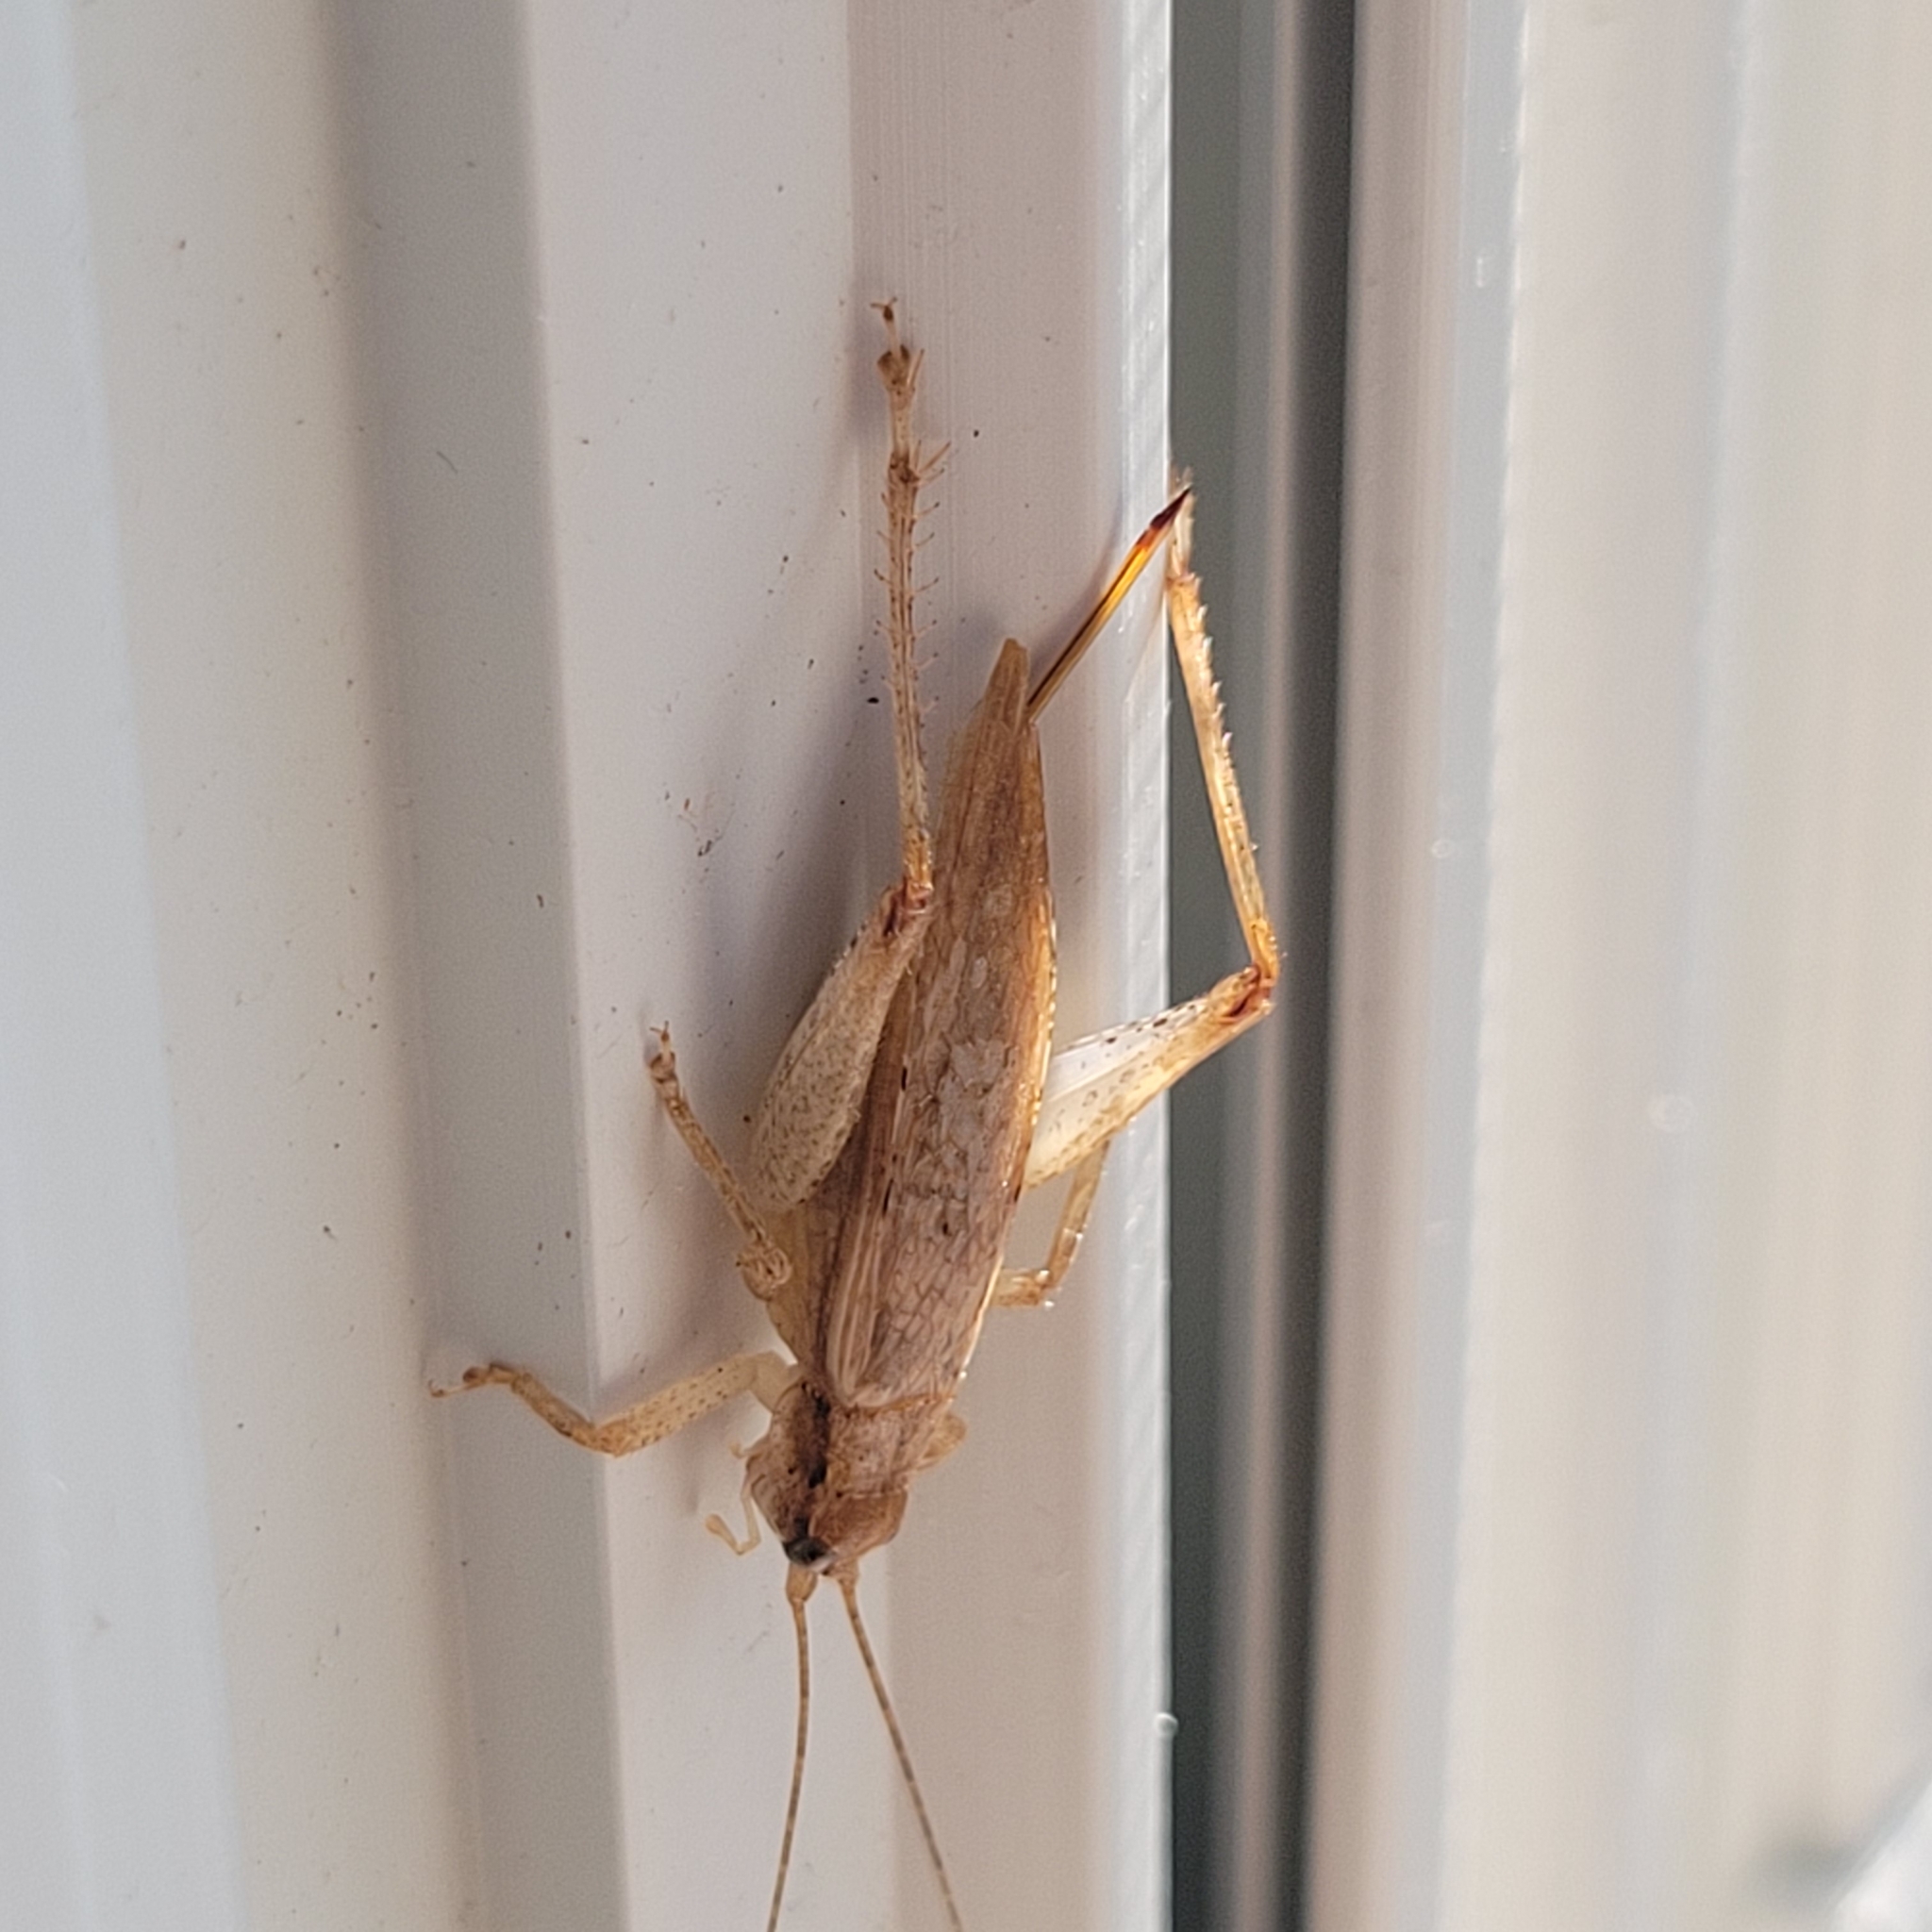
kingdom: Animalia
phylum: Arthropoda
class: Insecta
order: Orthoptera
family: Gryllidae
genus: Hapithus
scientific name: Hapithus saltator
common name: Jumping bush cricket
